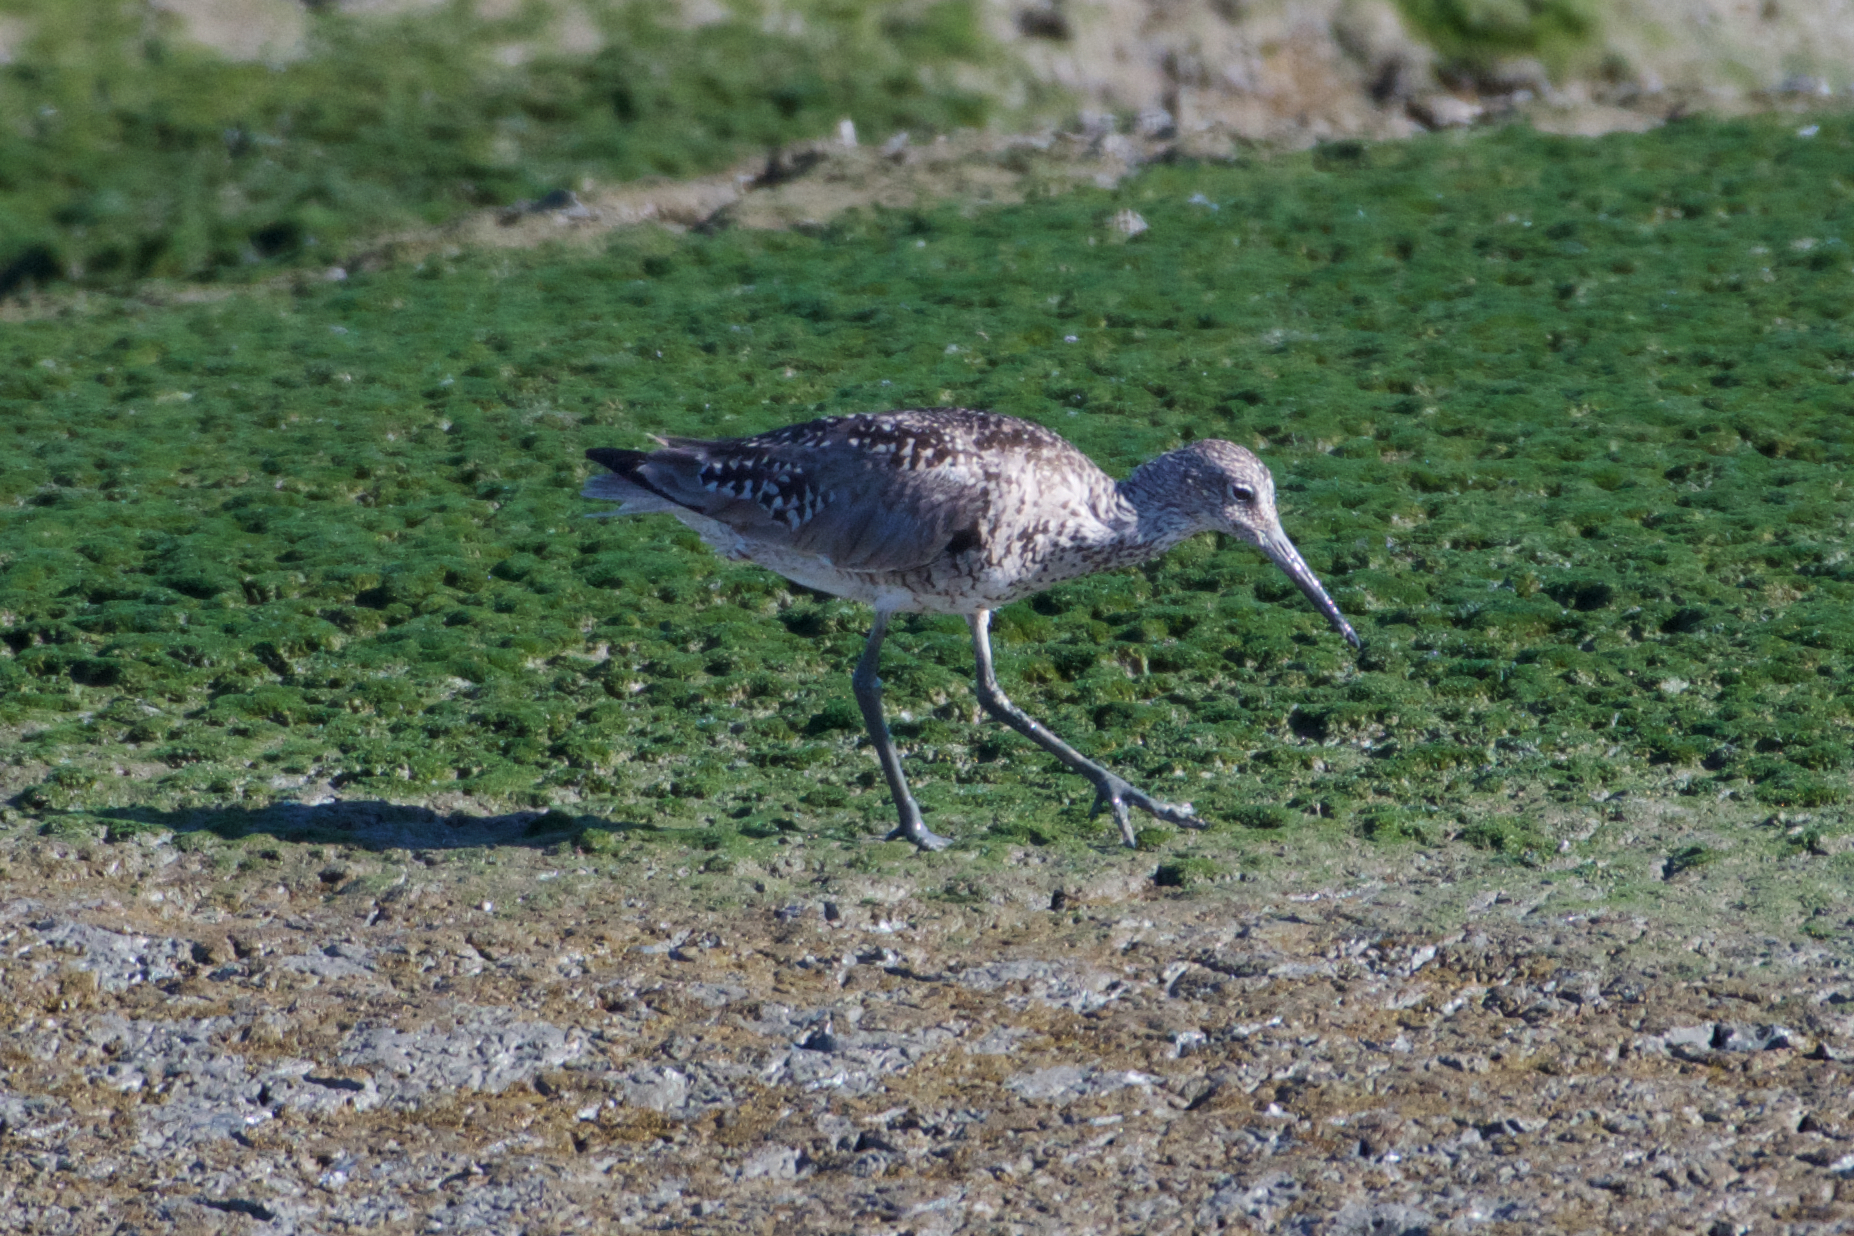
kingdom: Animalia
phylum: Chordata
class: Aves
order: Charadriiformes
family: Scolopacidae
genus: Tringa
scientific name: Tringa semipalmata
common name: Willet
